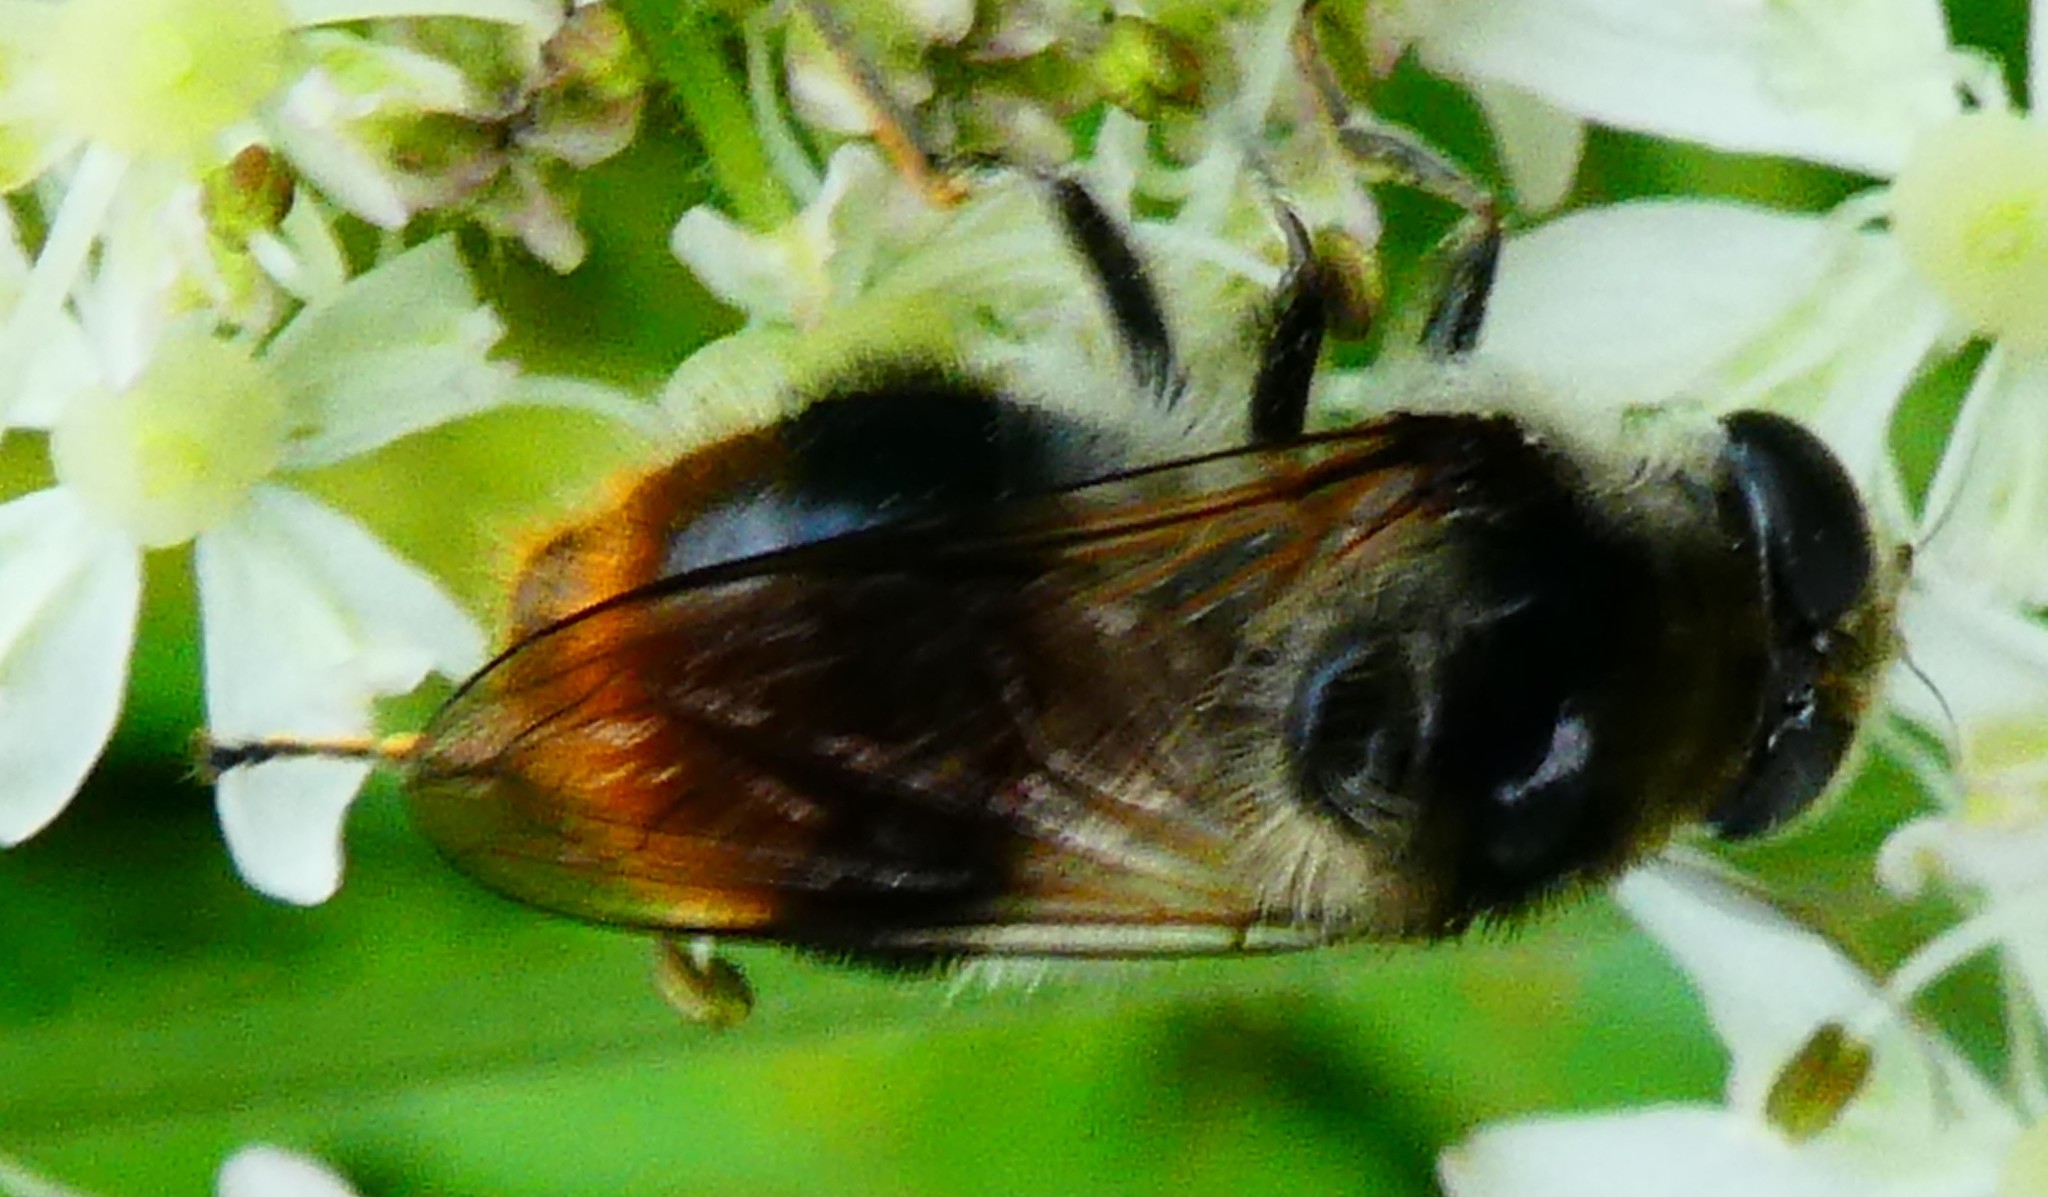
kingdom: Animalia
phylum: Arthropoda
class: Insecta
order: Diptera
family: Syrphidae
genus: Cheilosia
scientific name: Cheilosia illustrata
